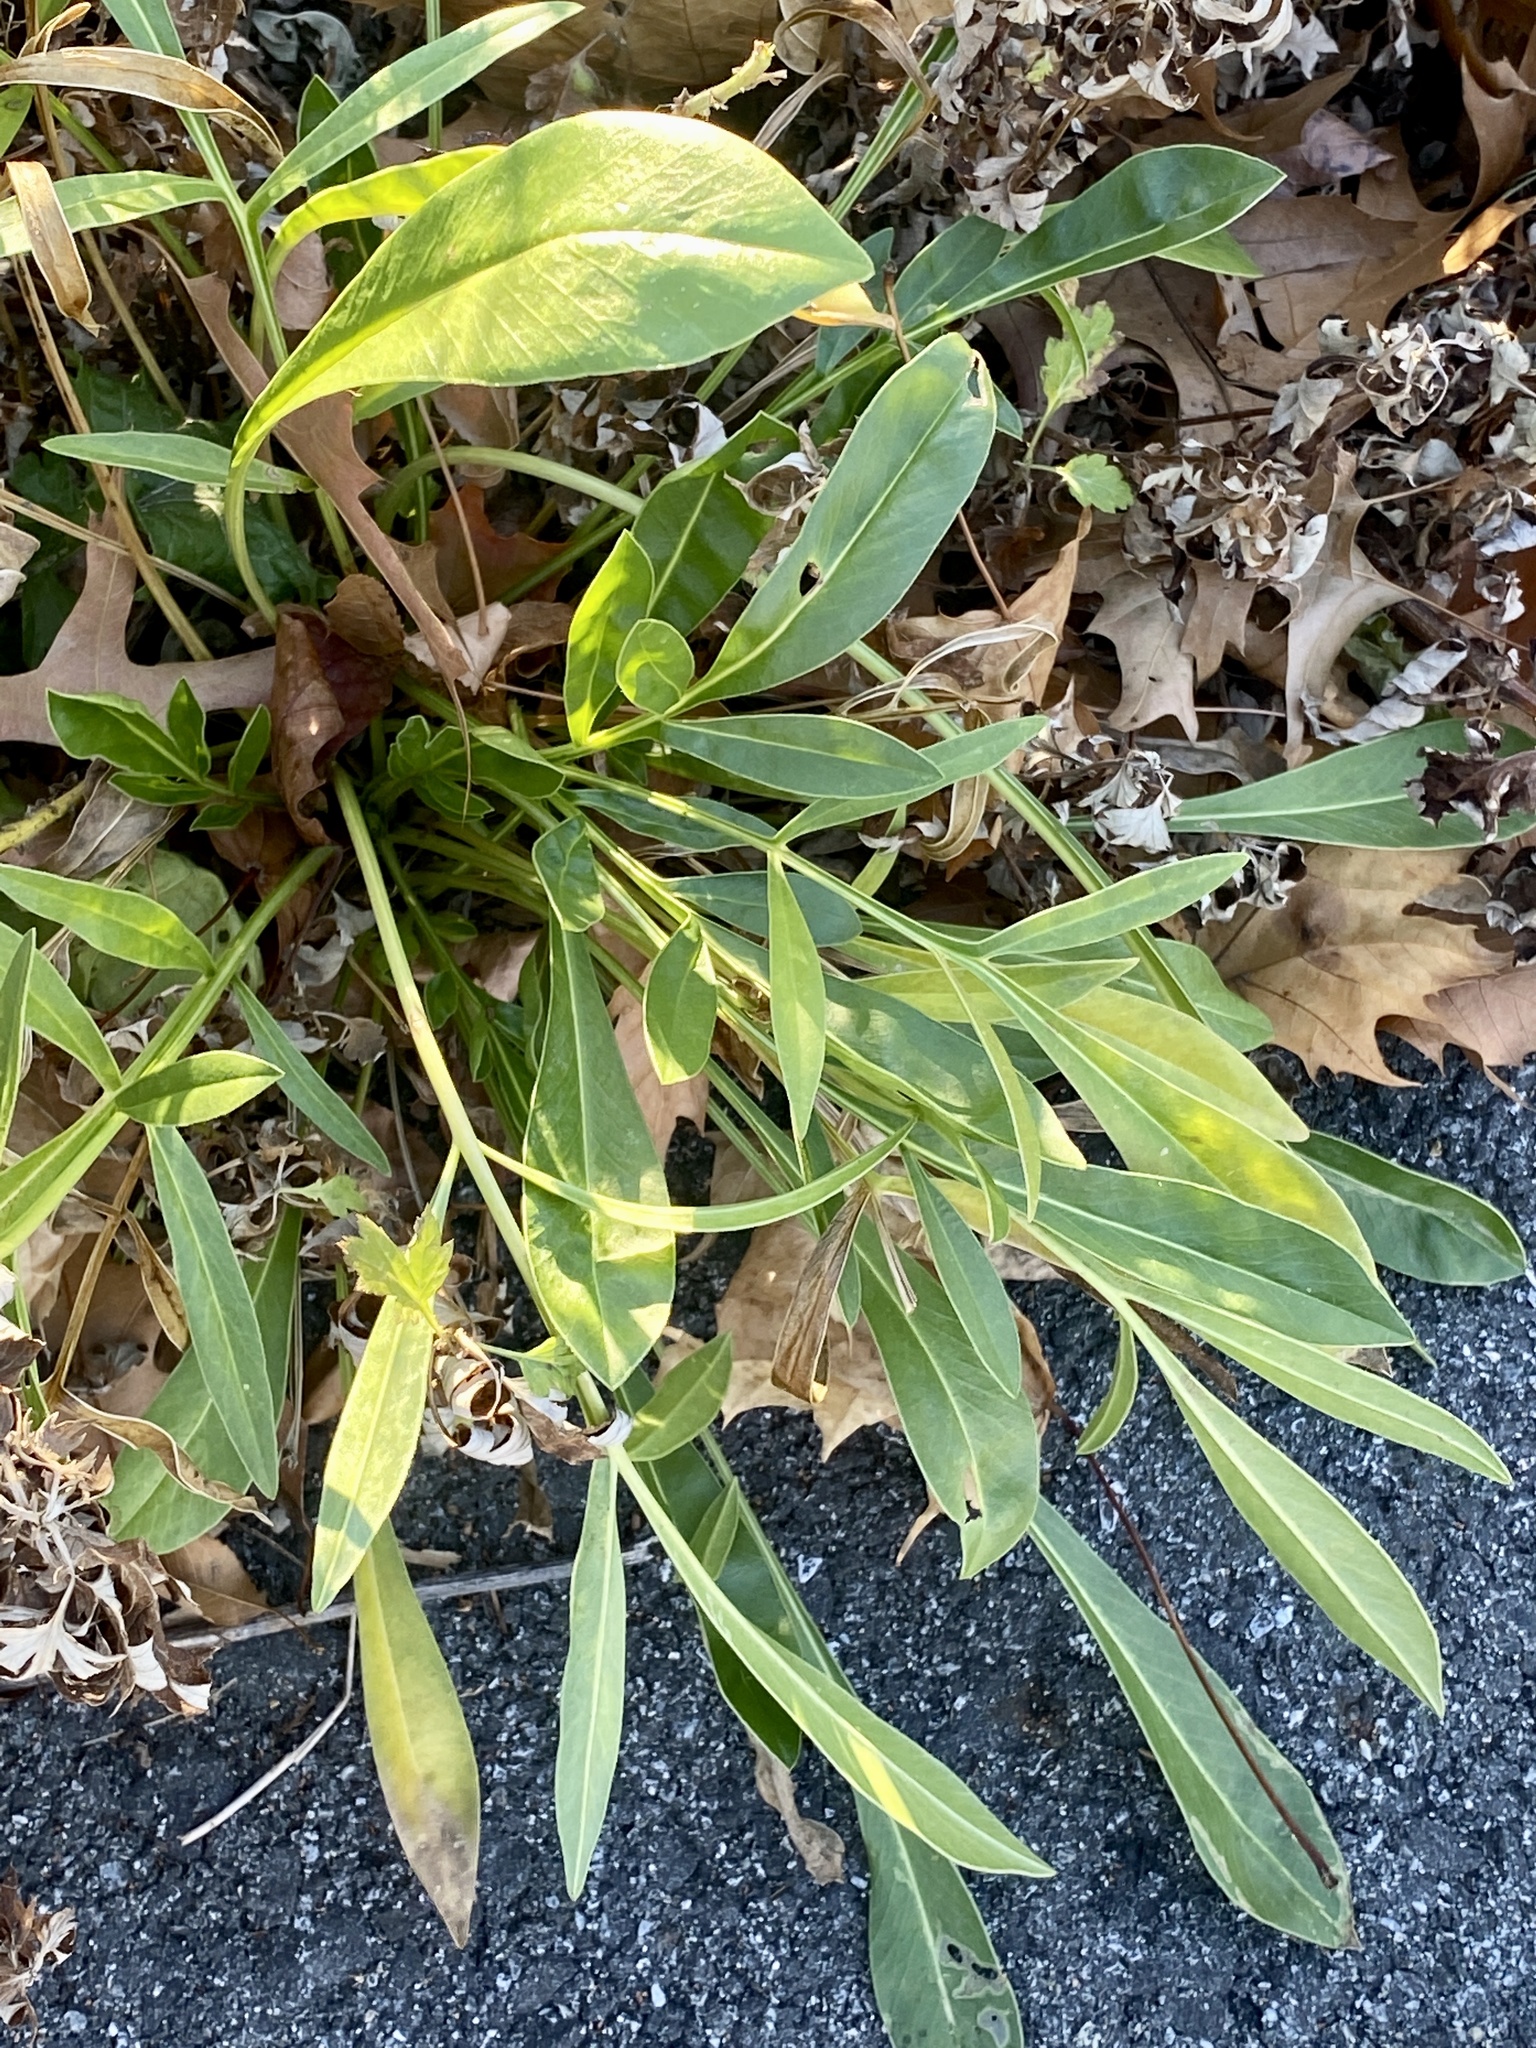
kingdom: Plantae
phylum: Tracheophyta
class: Magnoliopsida
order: Asterales
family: Asteraceae
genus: Coreopsis
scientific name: Coreopsis lanceolata
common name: Garden coreopsis
